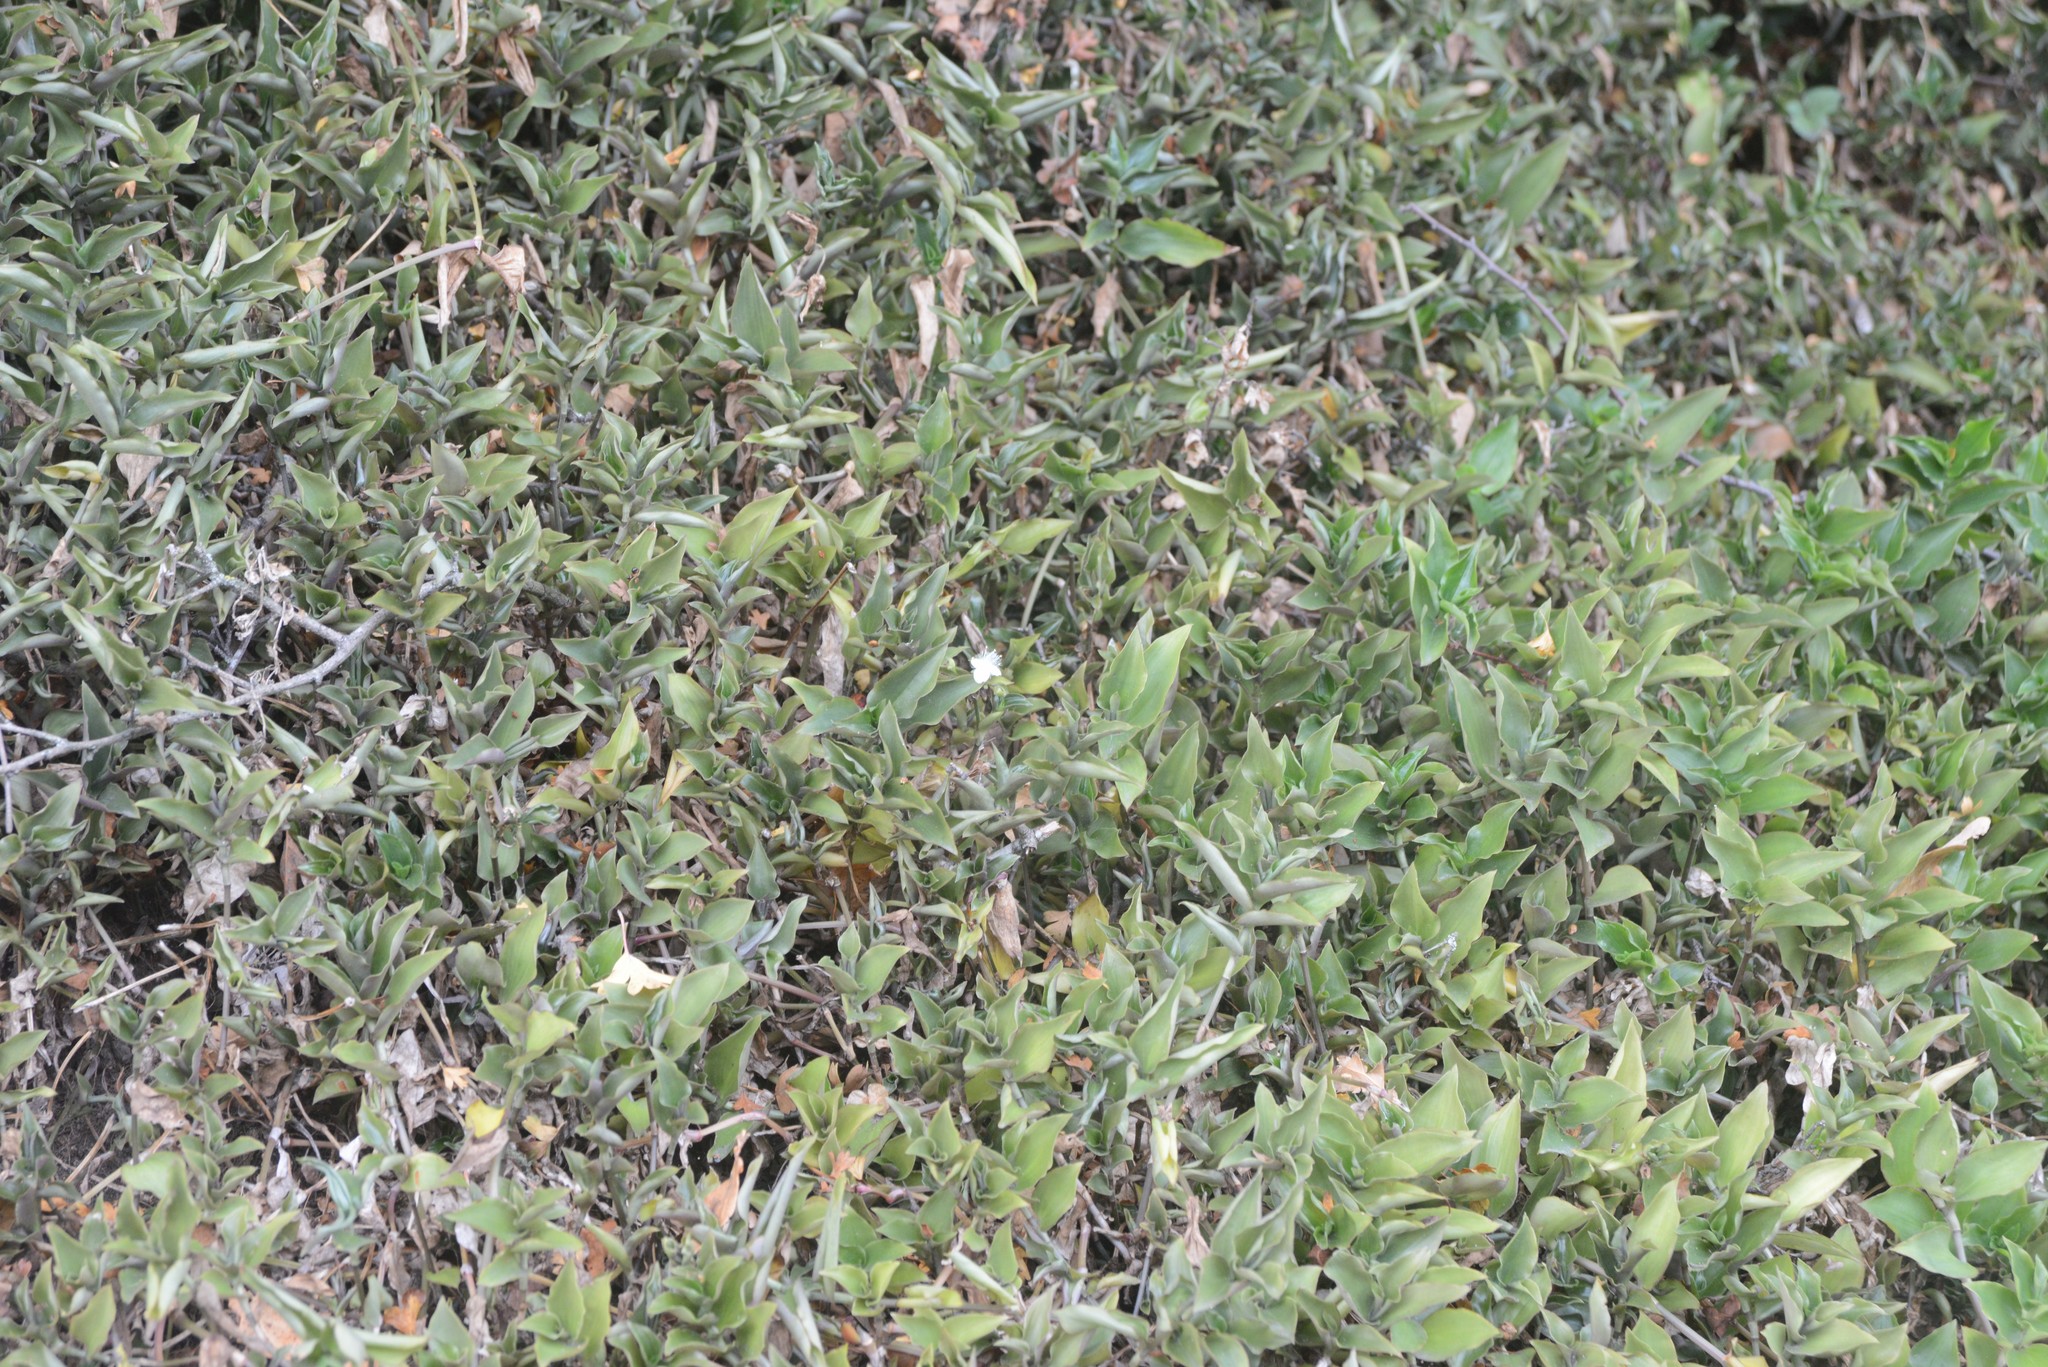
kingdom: Plantae
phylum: Tracheophyta
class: Liliopsida
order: Commelinales
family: Commelinaceae
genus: Tradescantia
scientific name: Tradescantia fluminensis
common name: Wandering-jew
